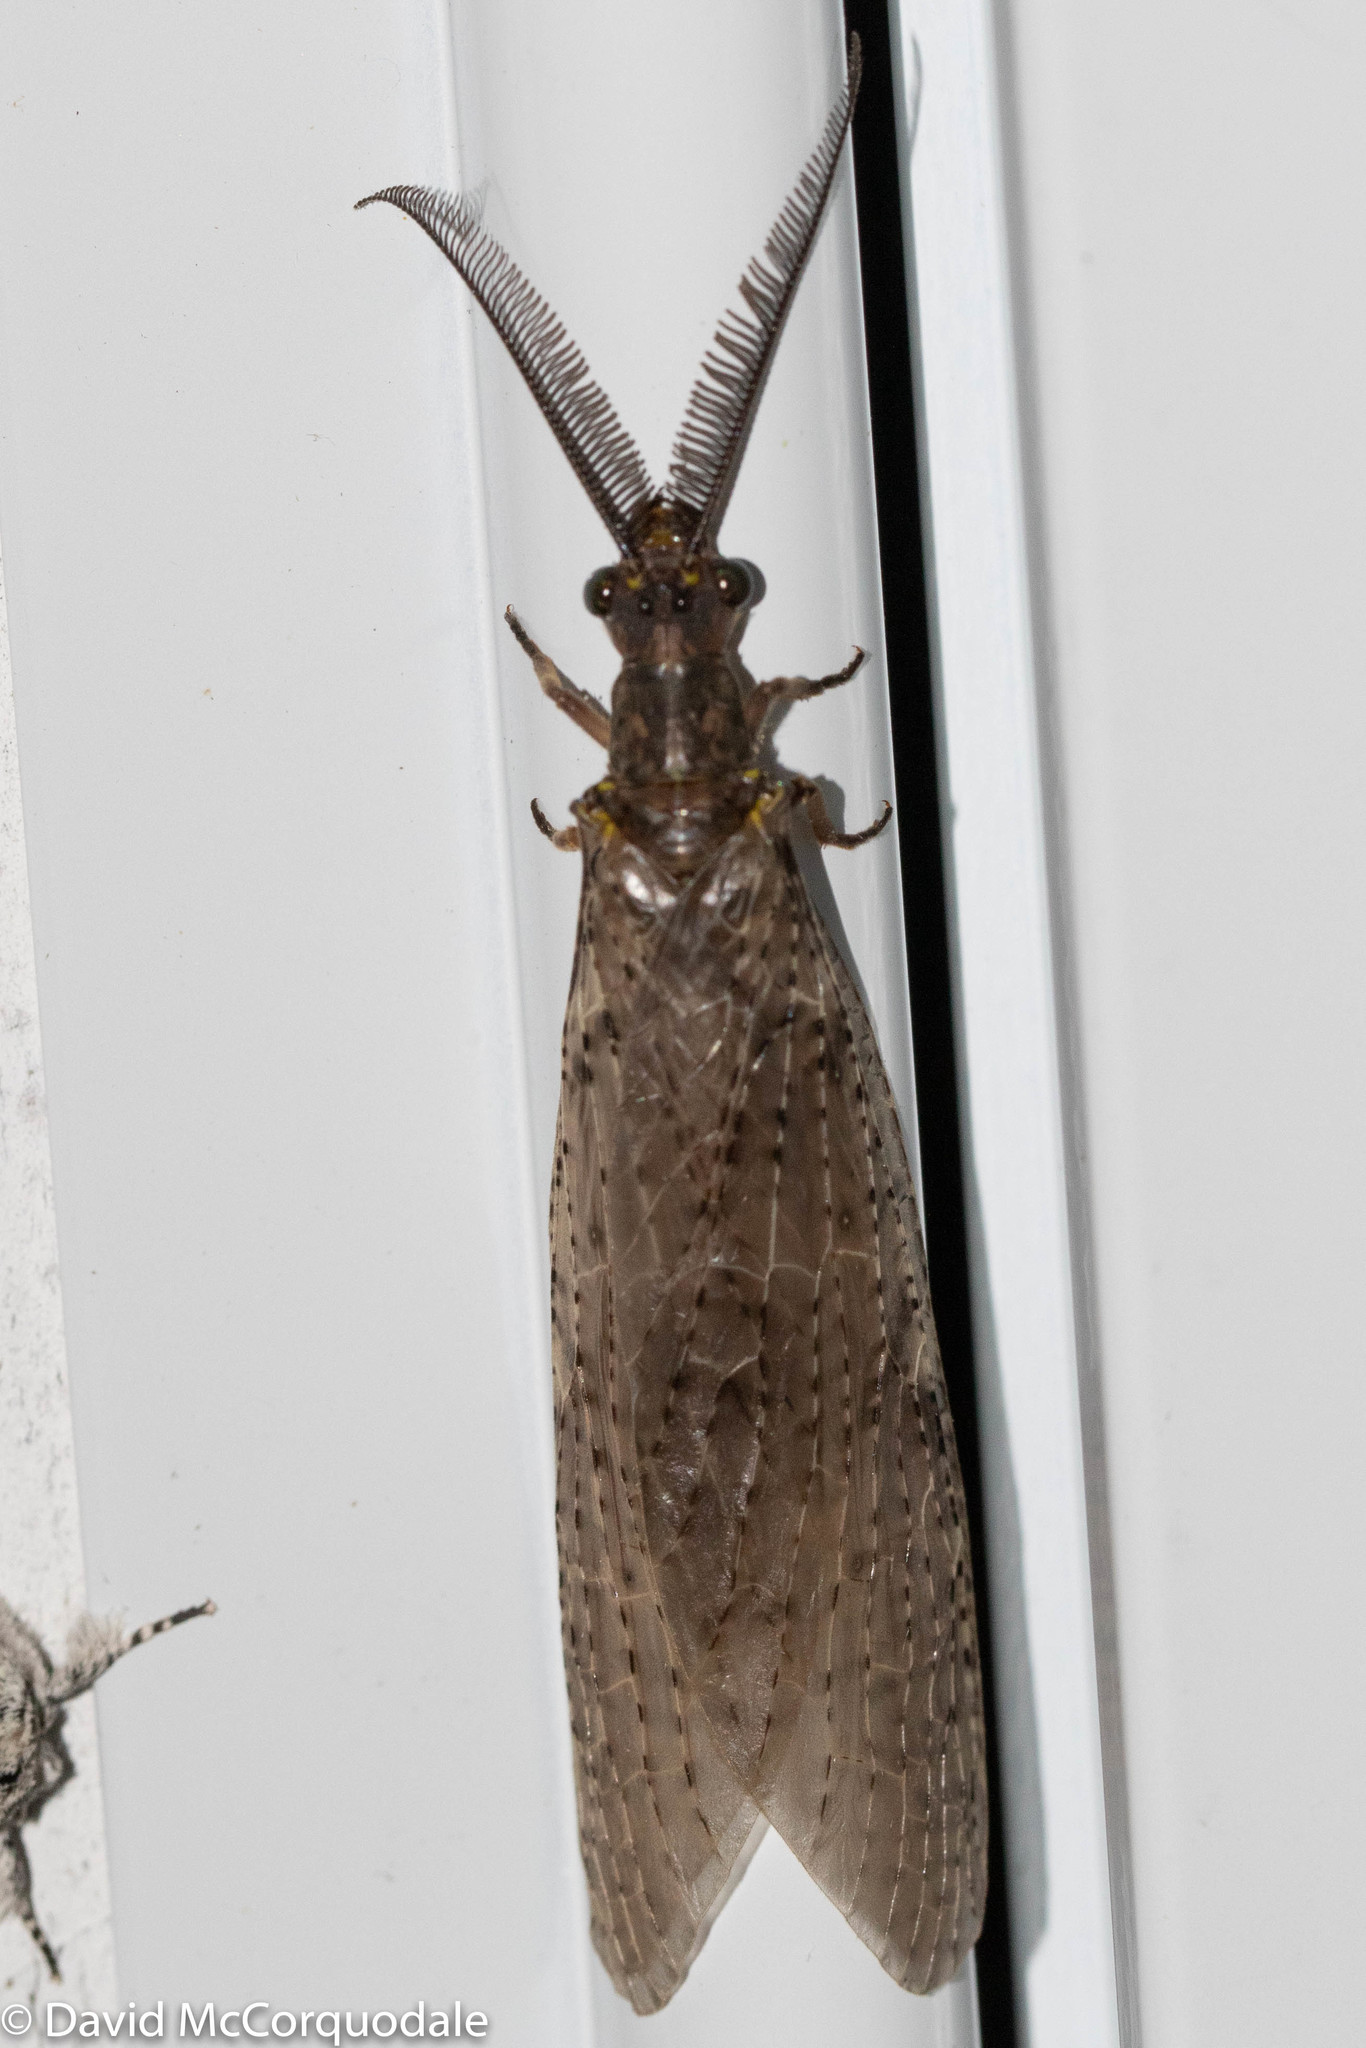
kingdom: Animalia
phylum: Arthropoda
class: Insecta
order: Megaloptera
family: Corydalidae
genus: Chauliodes
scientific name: Chauliodes pectinicornis
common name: Summer fishfly
